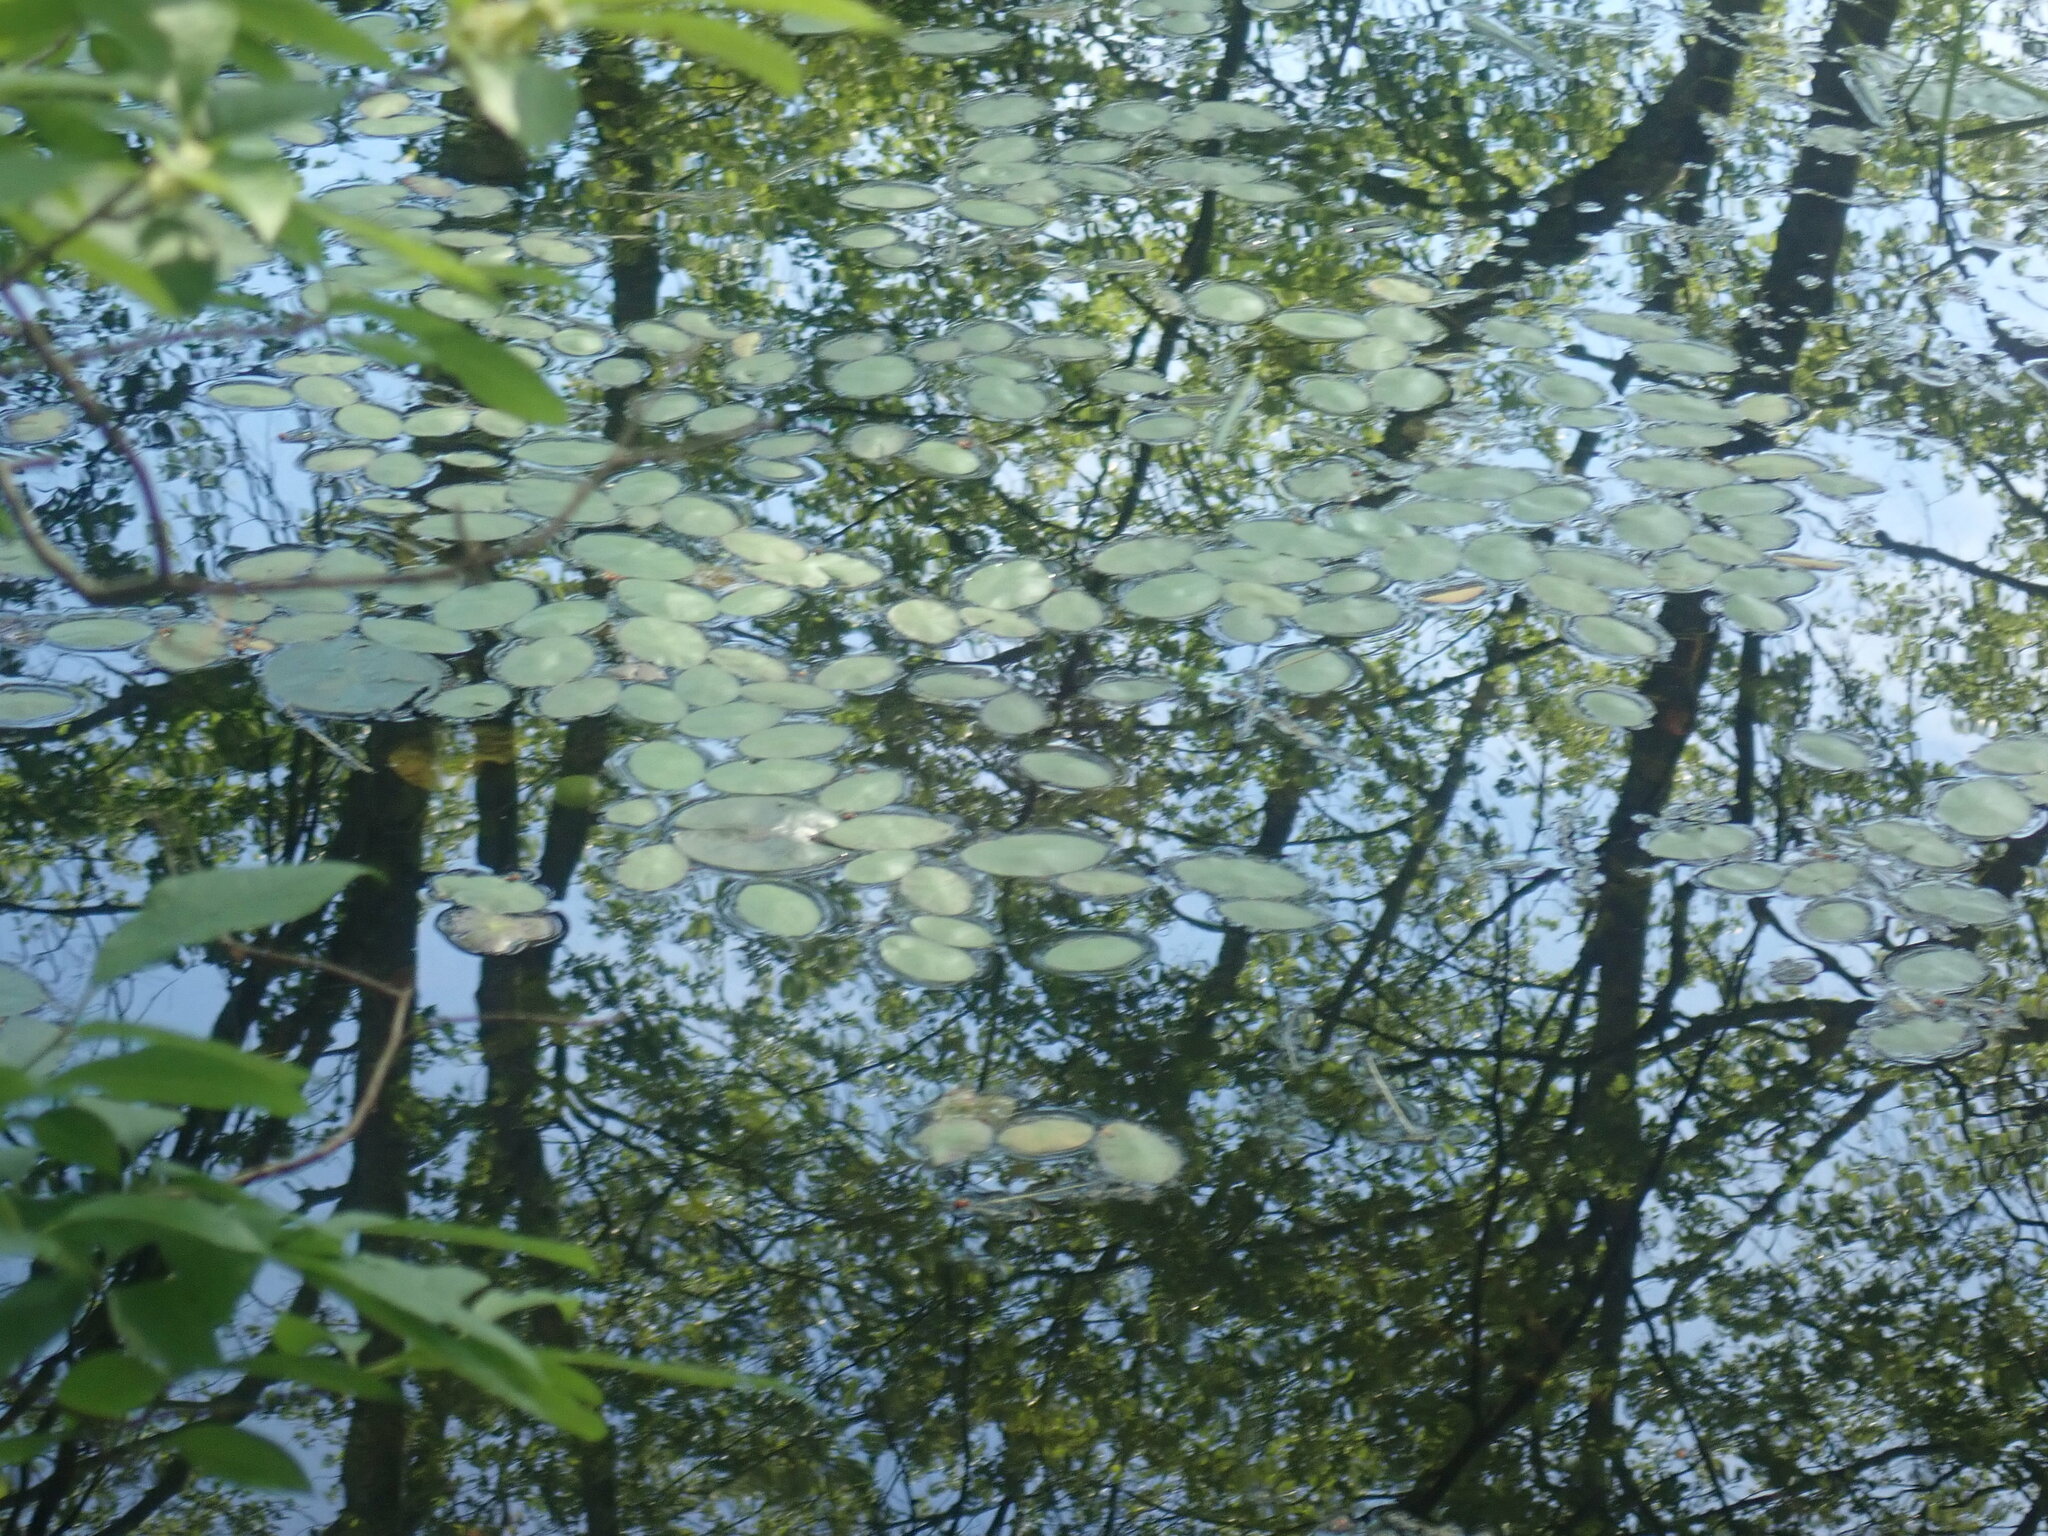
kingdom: Plantae
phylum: Tracheophyta
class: Magnoliopsida
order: Nymphaeales
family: Cabombaceae
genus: Brasenia
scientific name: Brasenia schreberi
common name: Water-shield
